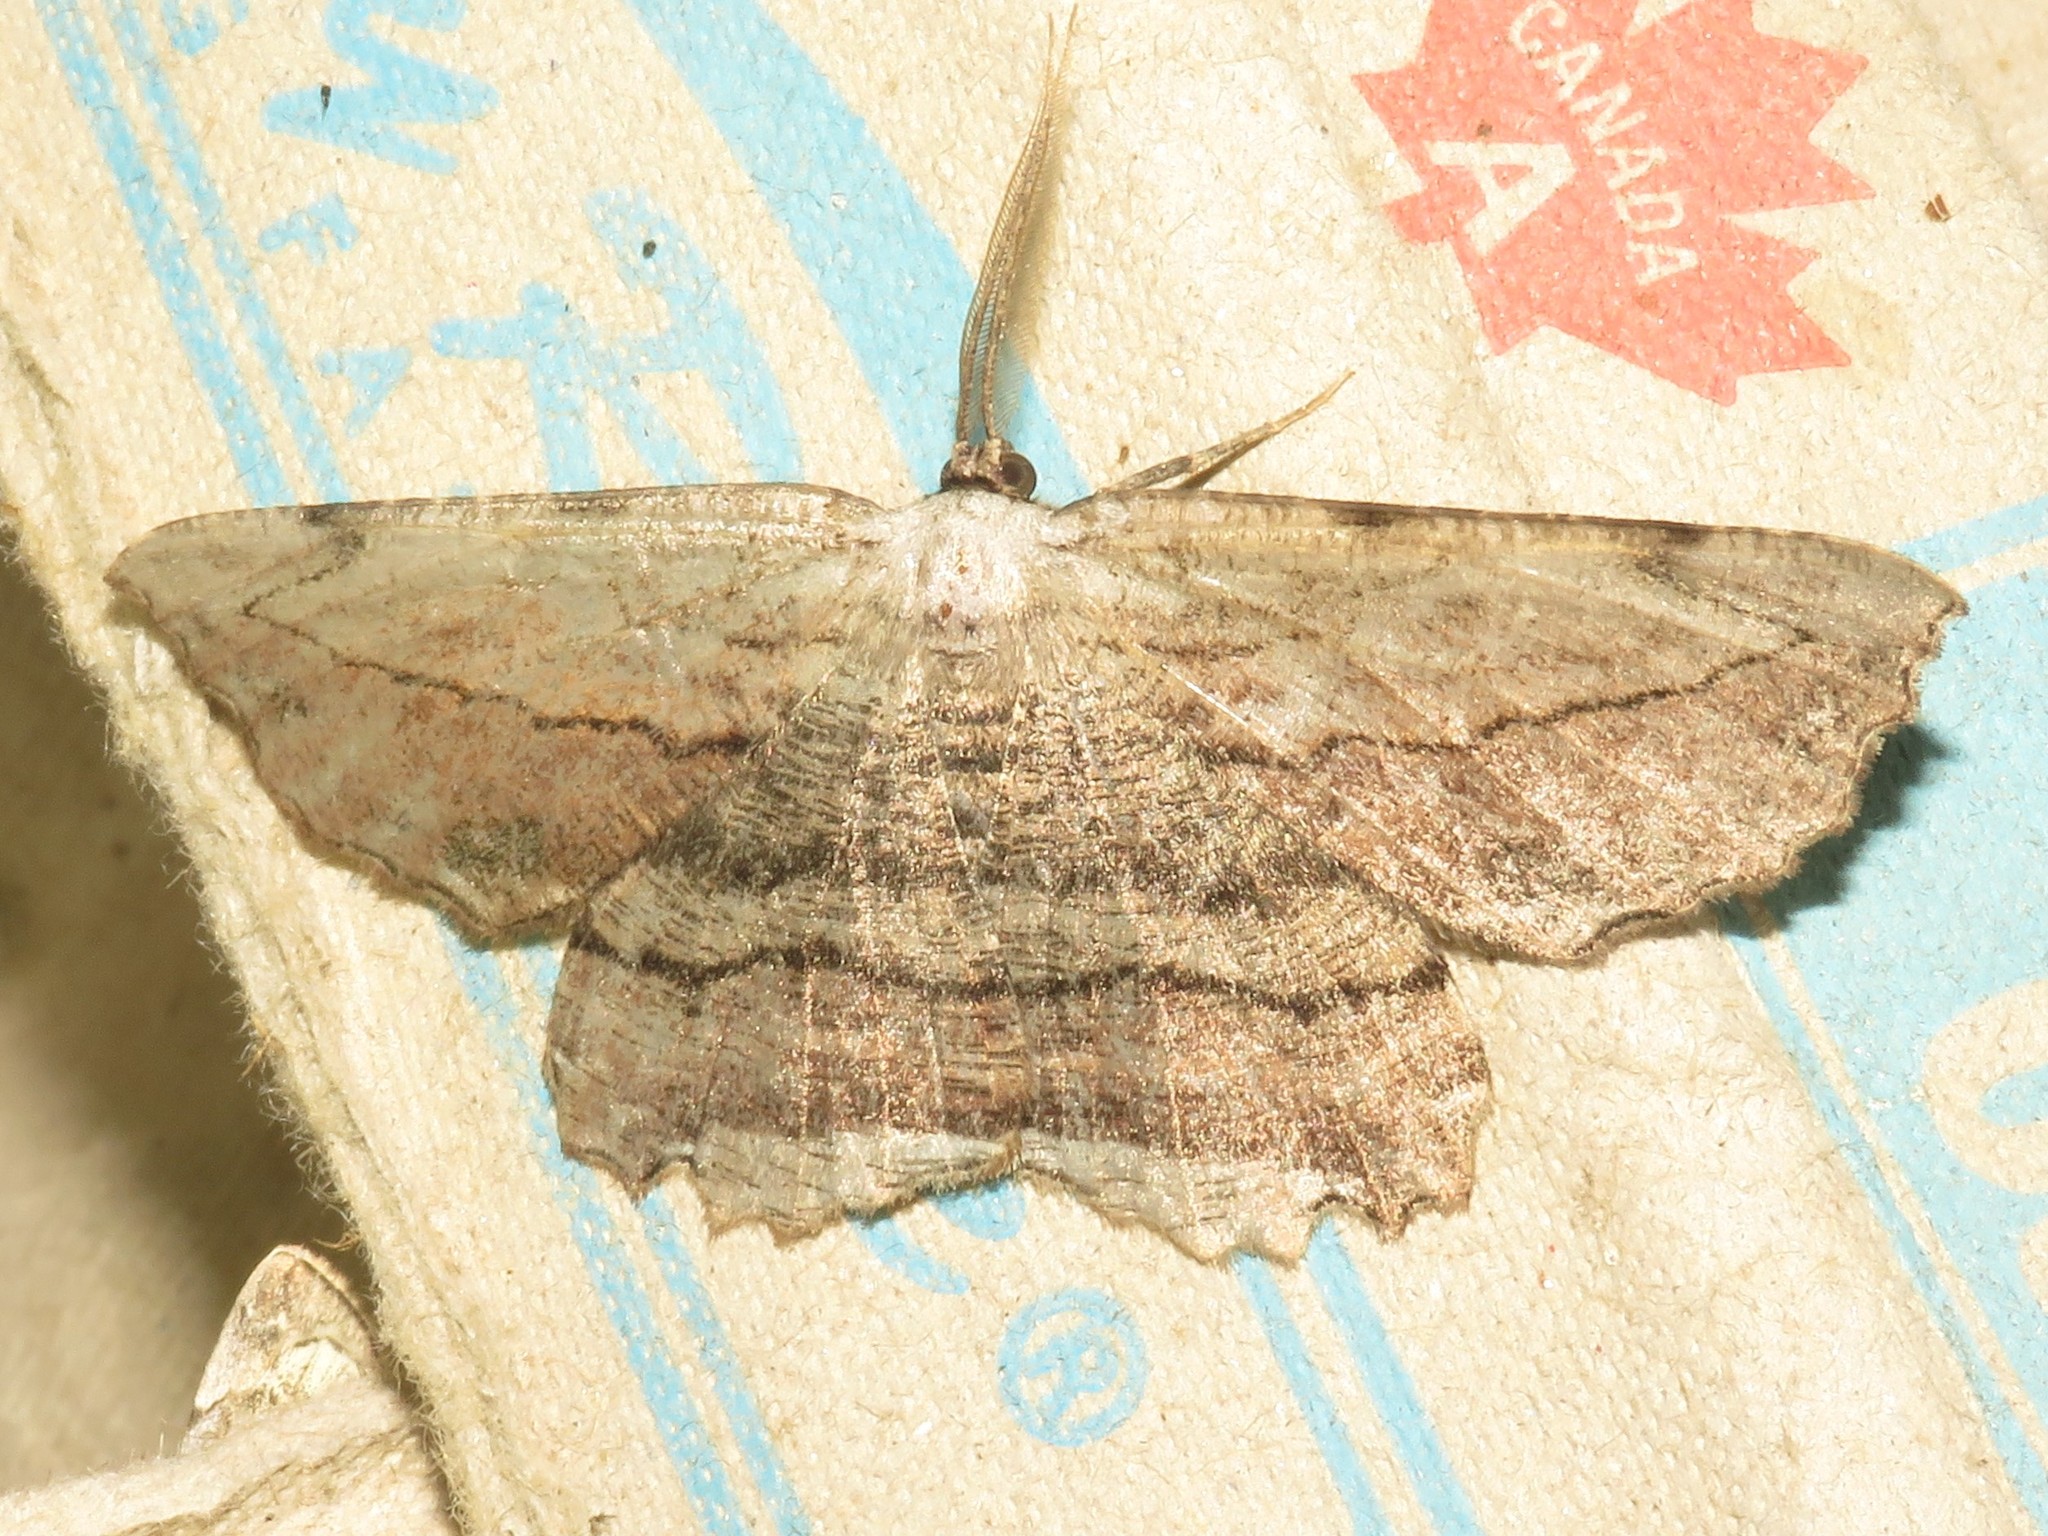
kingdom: Animalia
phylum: Arthropoda
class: Insecta
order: Lepidoptera
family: Geometridae
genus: Lytrosis
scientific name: Lytrosis unitaria
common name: Common lytrosis
